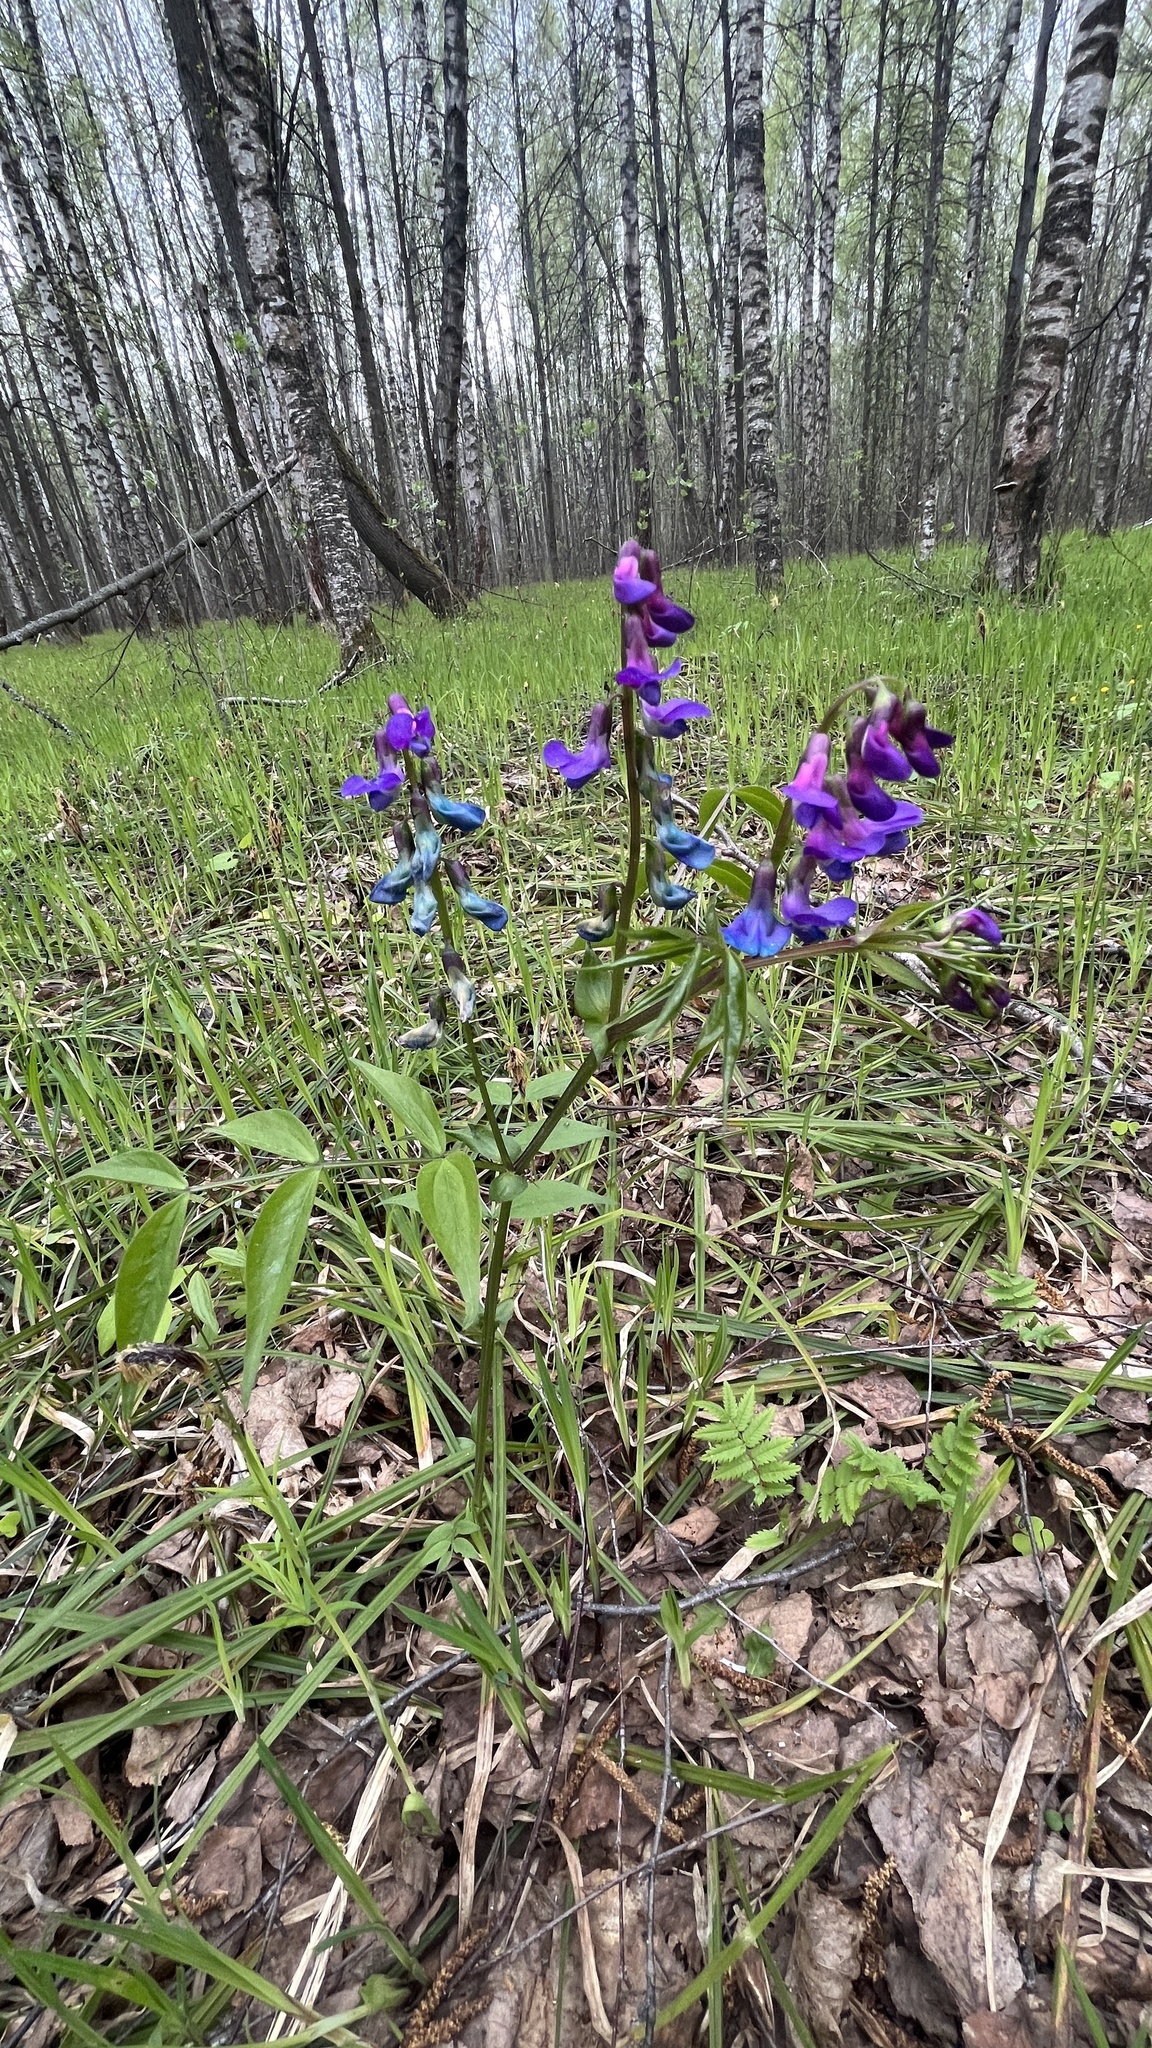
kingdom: Plantae
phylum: Tracheophyta
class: Magnoliopsida
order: Fabales
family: Fabaceae
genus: Lathyrus
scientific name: Lathyrus vernus
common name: Spring pea
